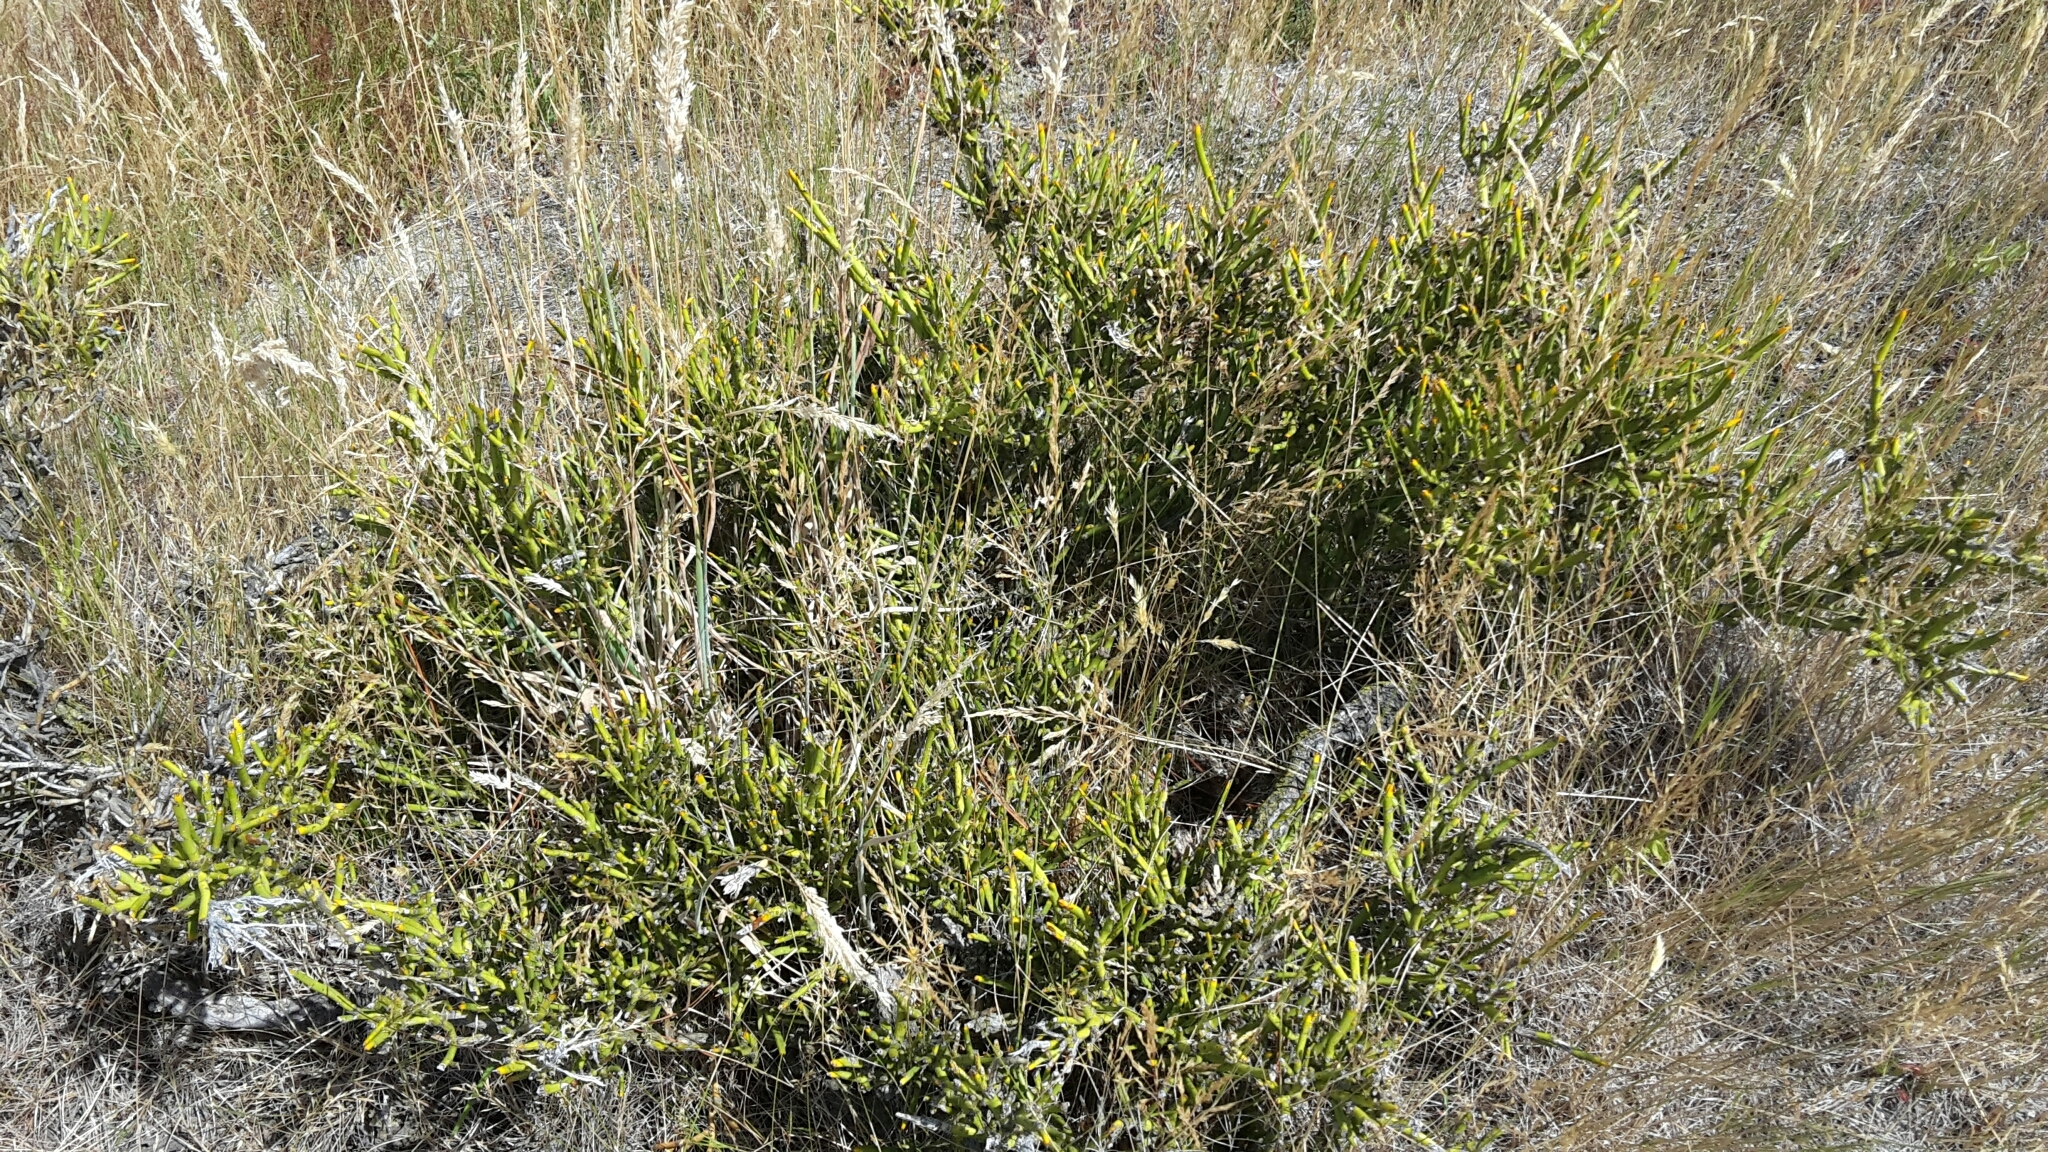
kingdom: Plantae
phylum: Tracheophyta
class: Magnoliopsida
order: Fabales
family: Fabaceae
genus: Carmichaelia
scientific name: Carmichaelia petriei
